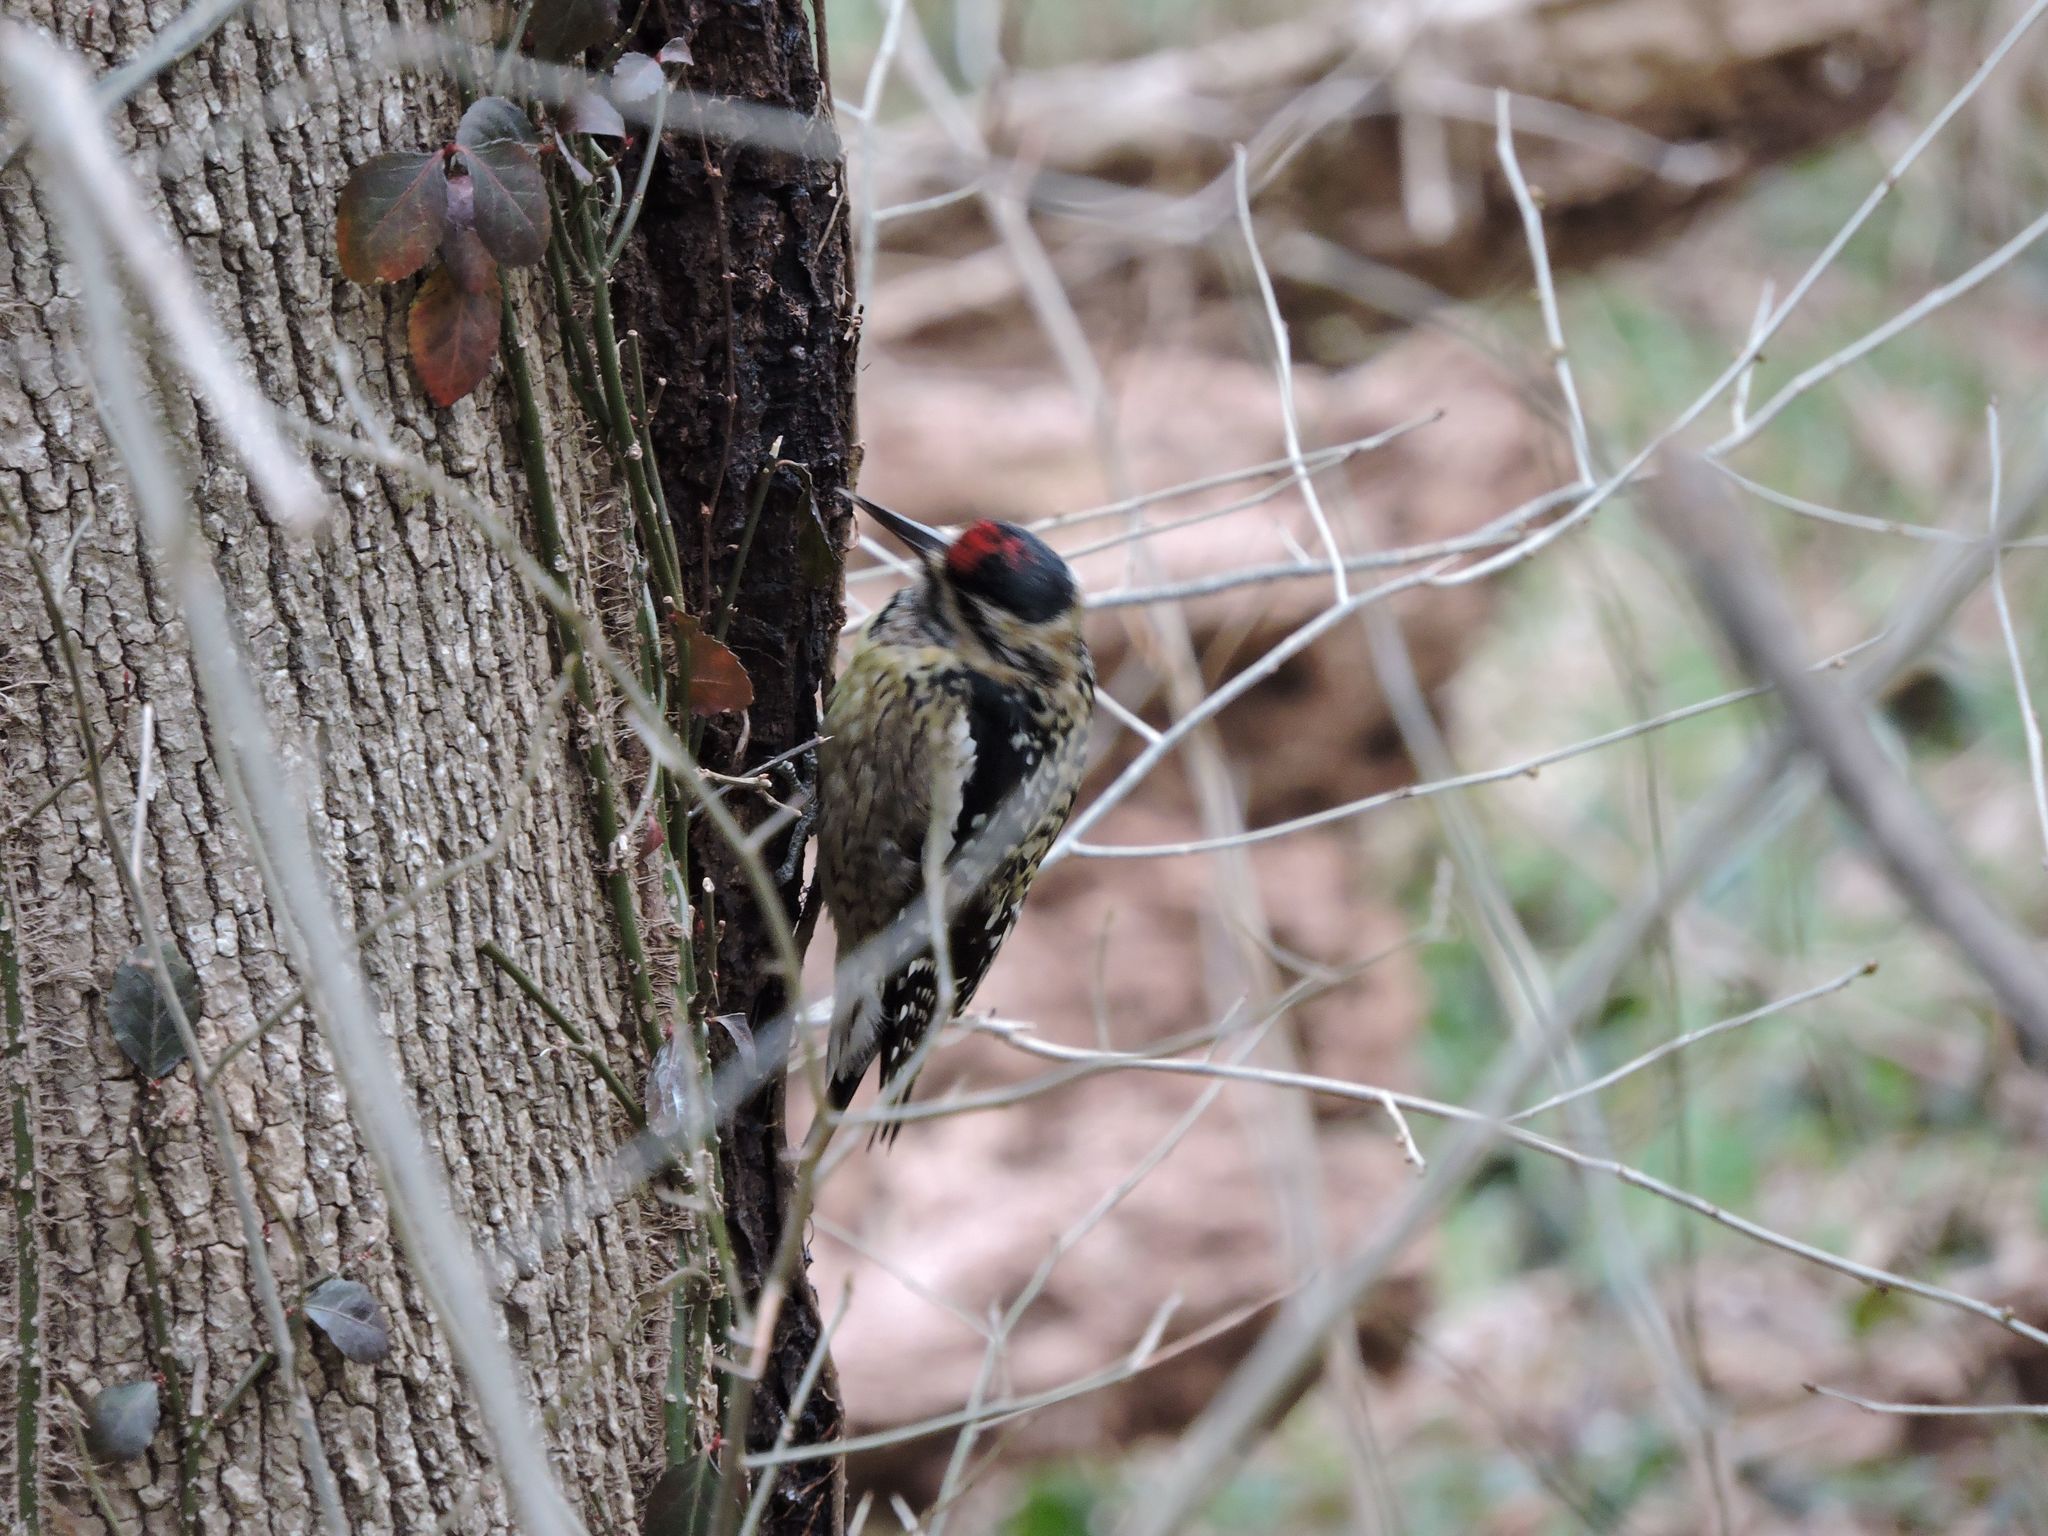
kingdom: Animalia
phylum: Chordata
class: Aves
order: Piciformes
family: Picidae
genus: Sphyrapicus
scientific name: Sphyrapicus varius
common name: Yellow-bellied sapsucker
